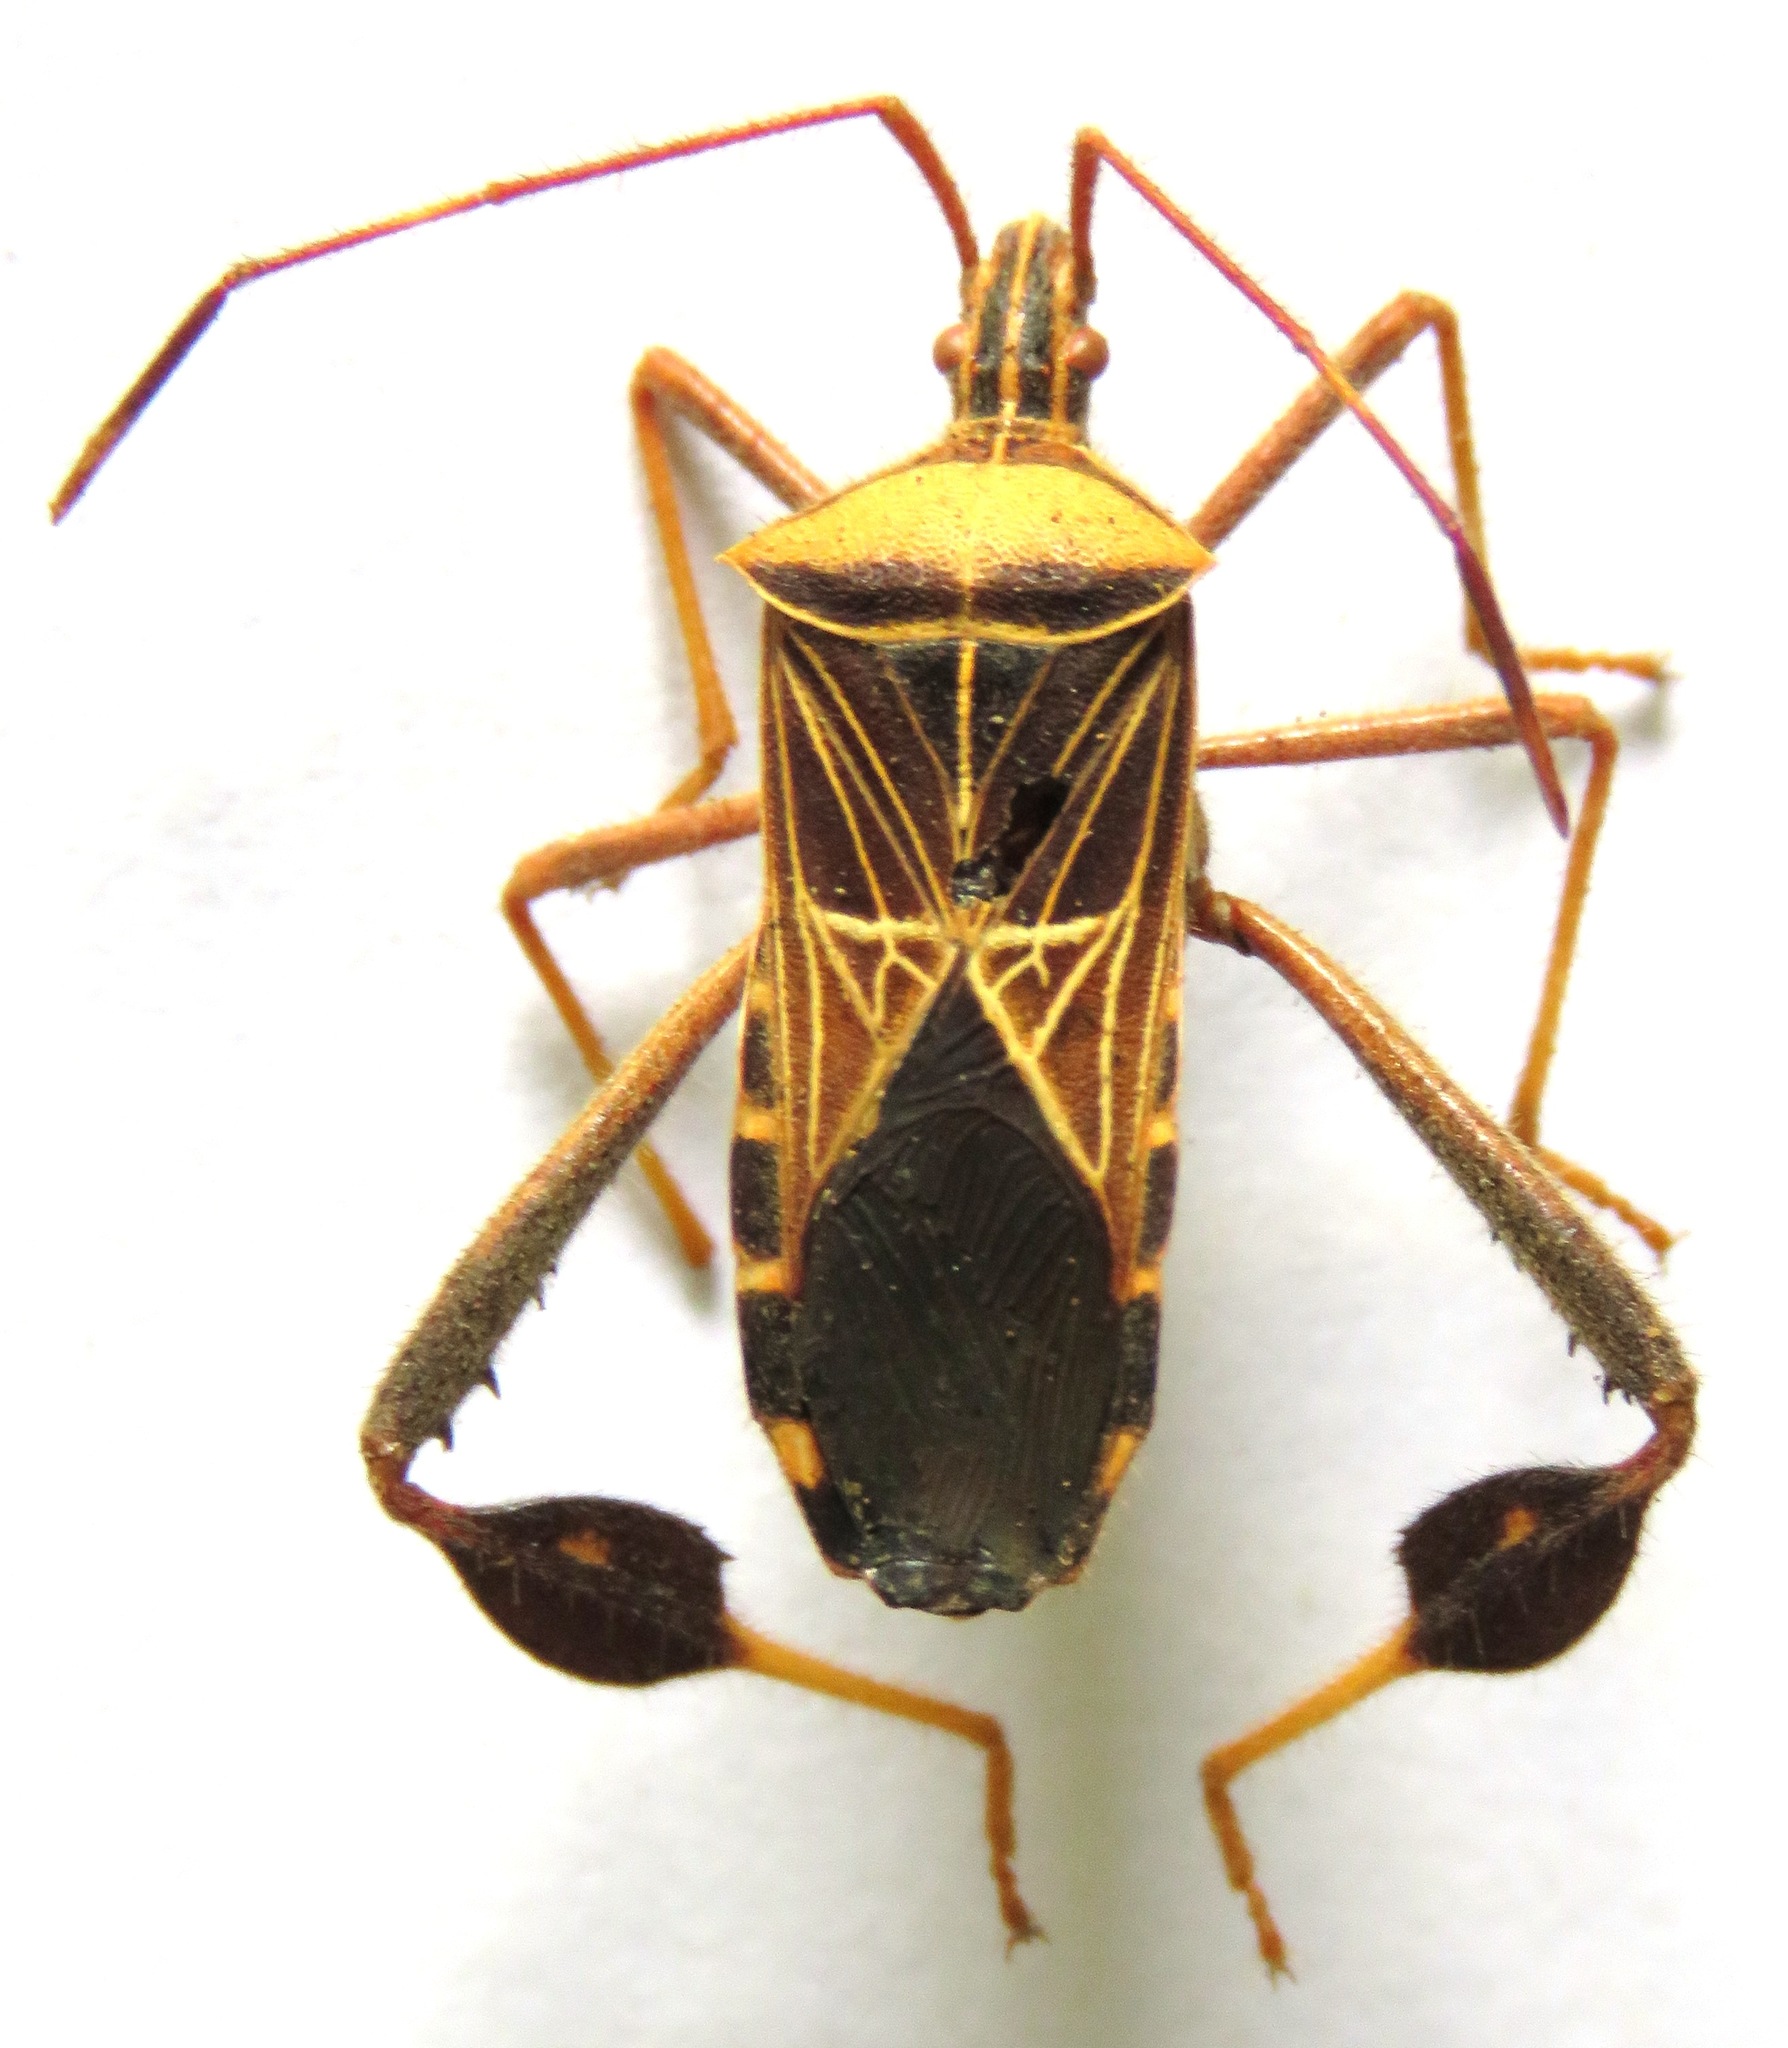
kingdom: Animalia
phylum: Arthropoda
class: Insecta
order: Hemiptera
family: Coreidae
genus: Leptoglossus
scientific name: Leptoglossus subauratus
